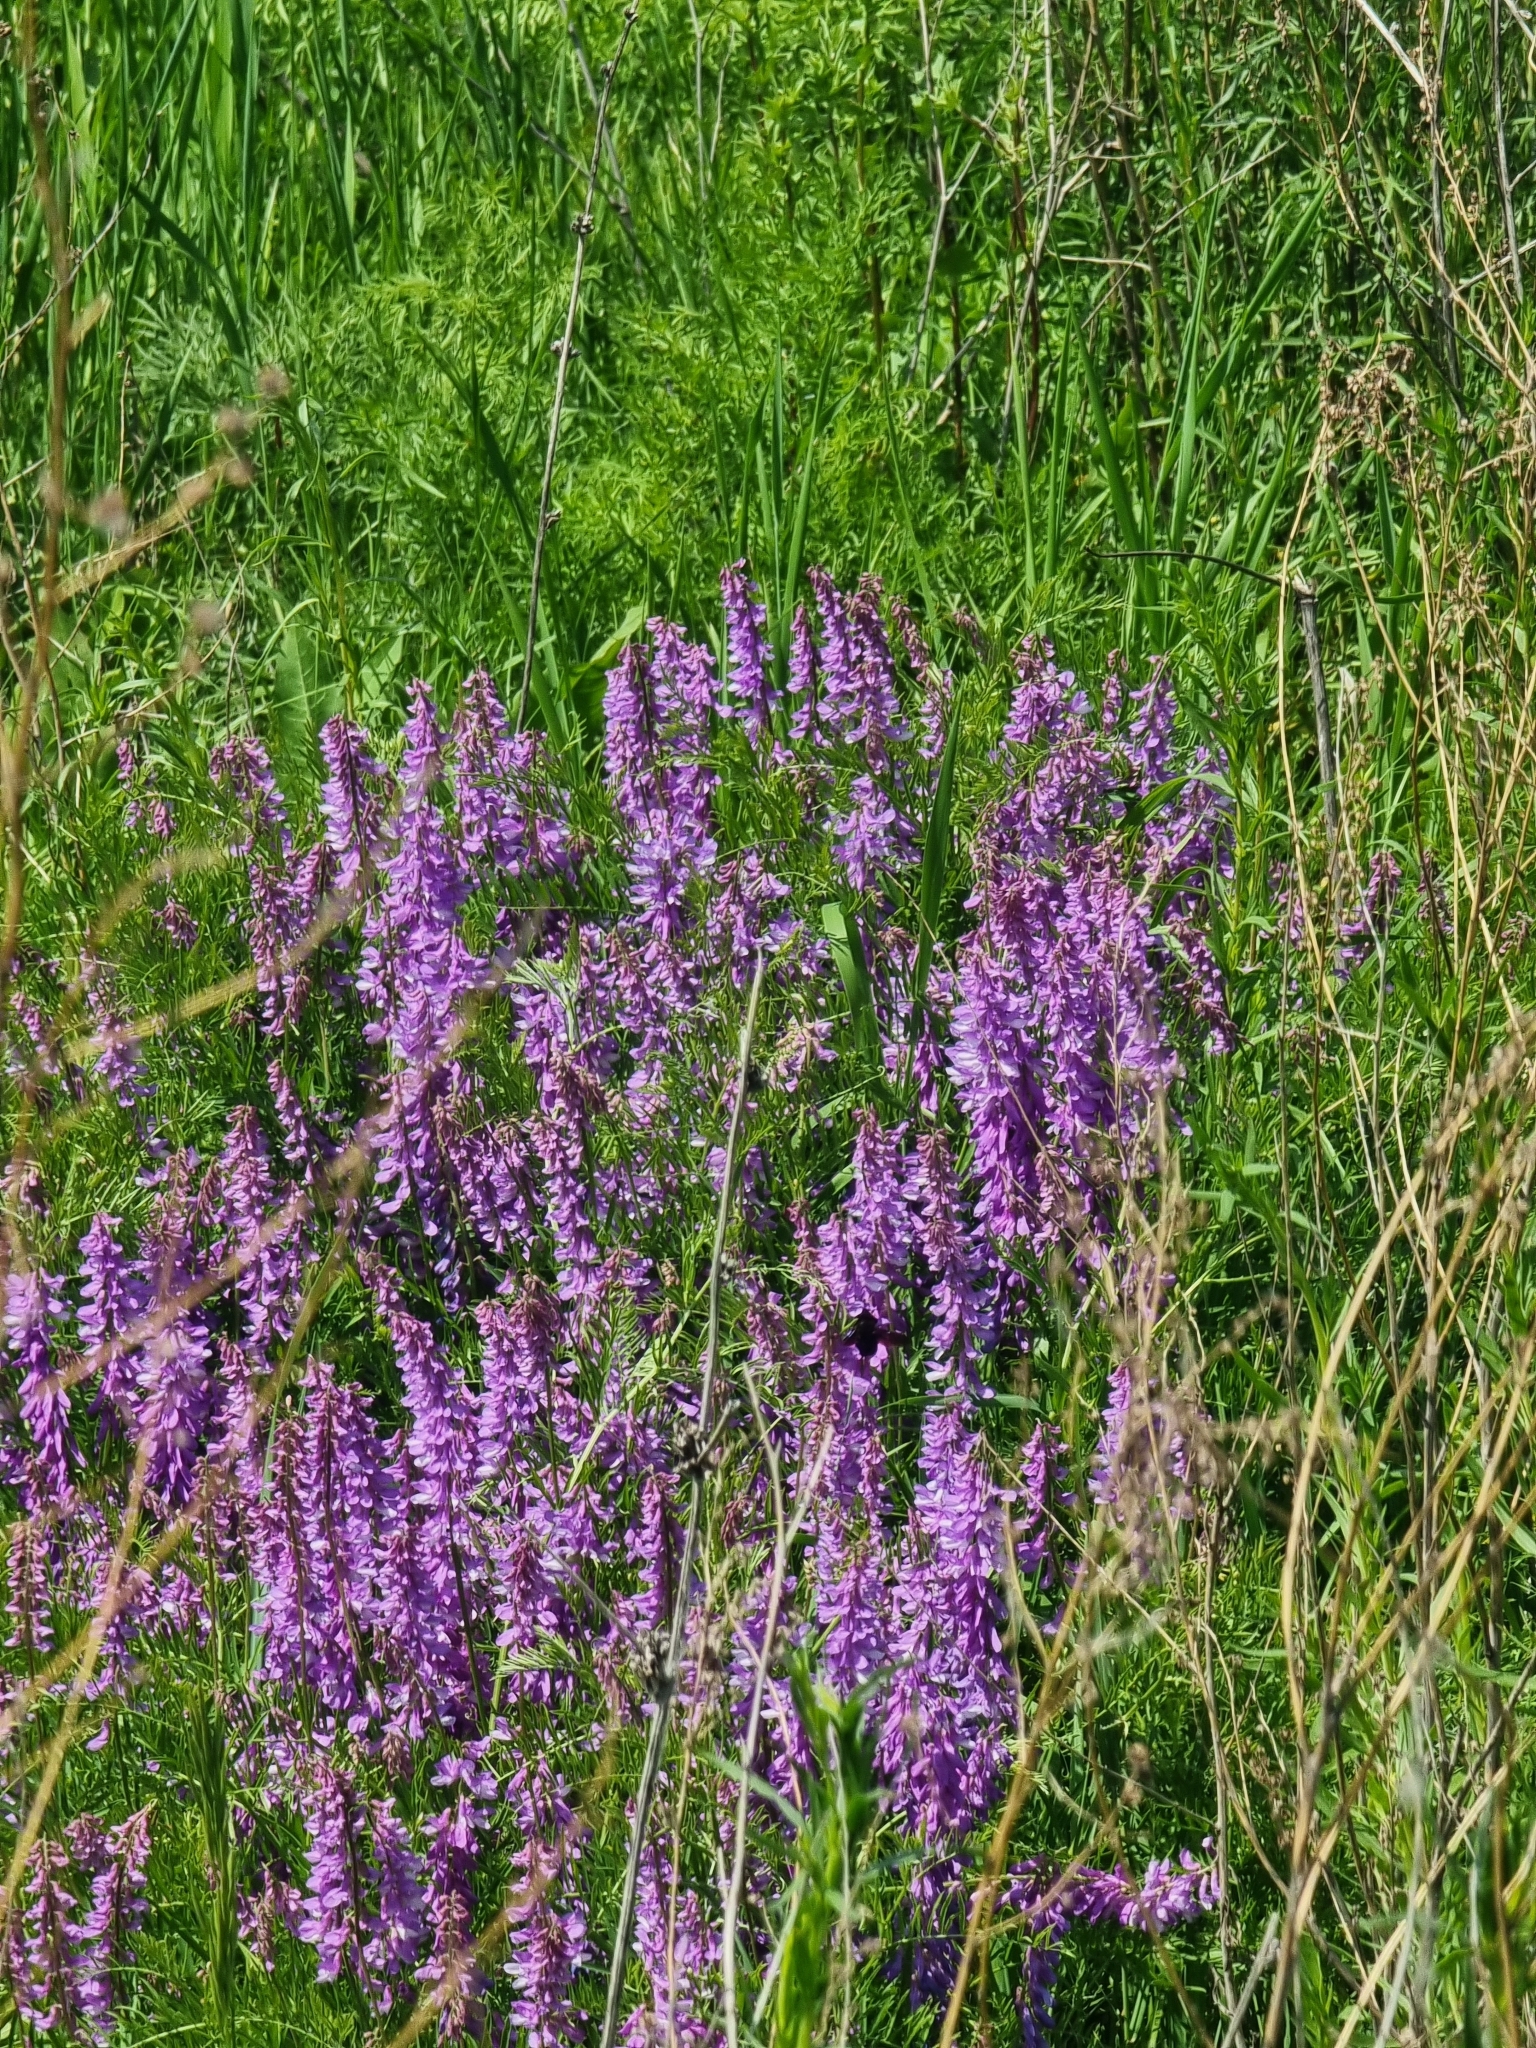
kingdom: Plantae
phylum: Tracheophyta
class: Magnoliopsida
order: Fabales
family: Fabaceae
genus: Vicia
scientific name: Vicia tenuifolia
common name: Fine-leaved vetch
